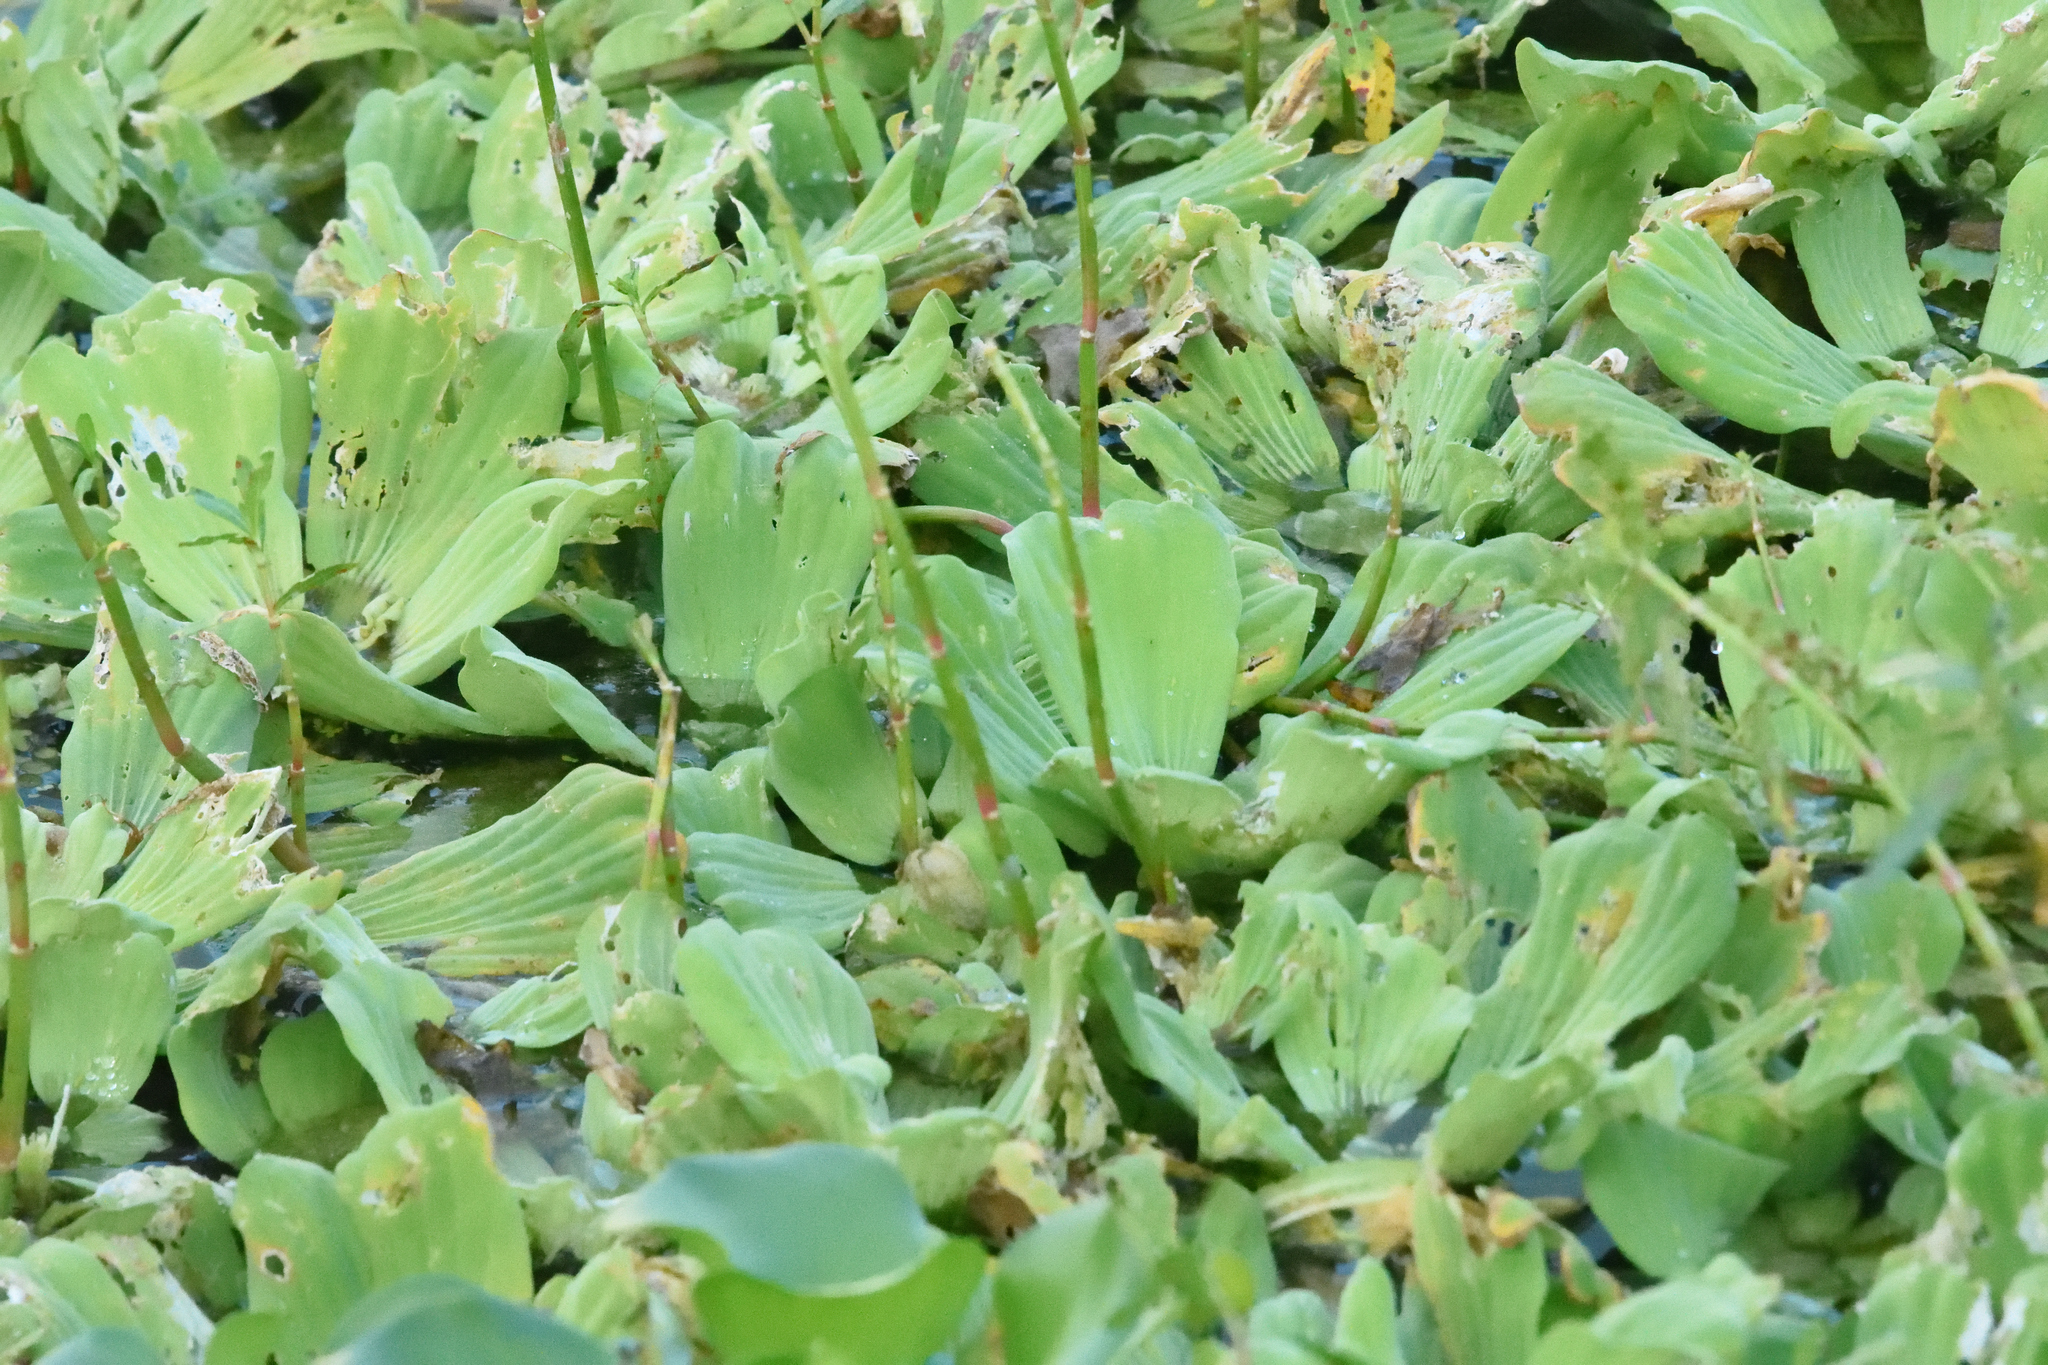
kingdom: Plantae
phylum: Tracheophyta
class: Liliopsida
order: Alismatales
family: Araceae
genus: Pistia
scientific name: Pistia stratiotes
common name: Water lettuce
